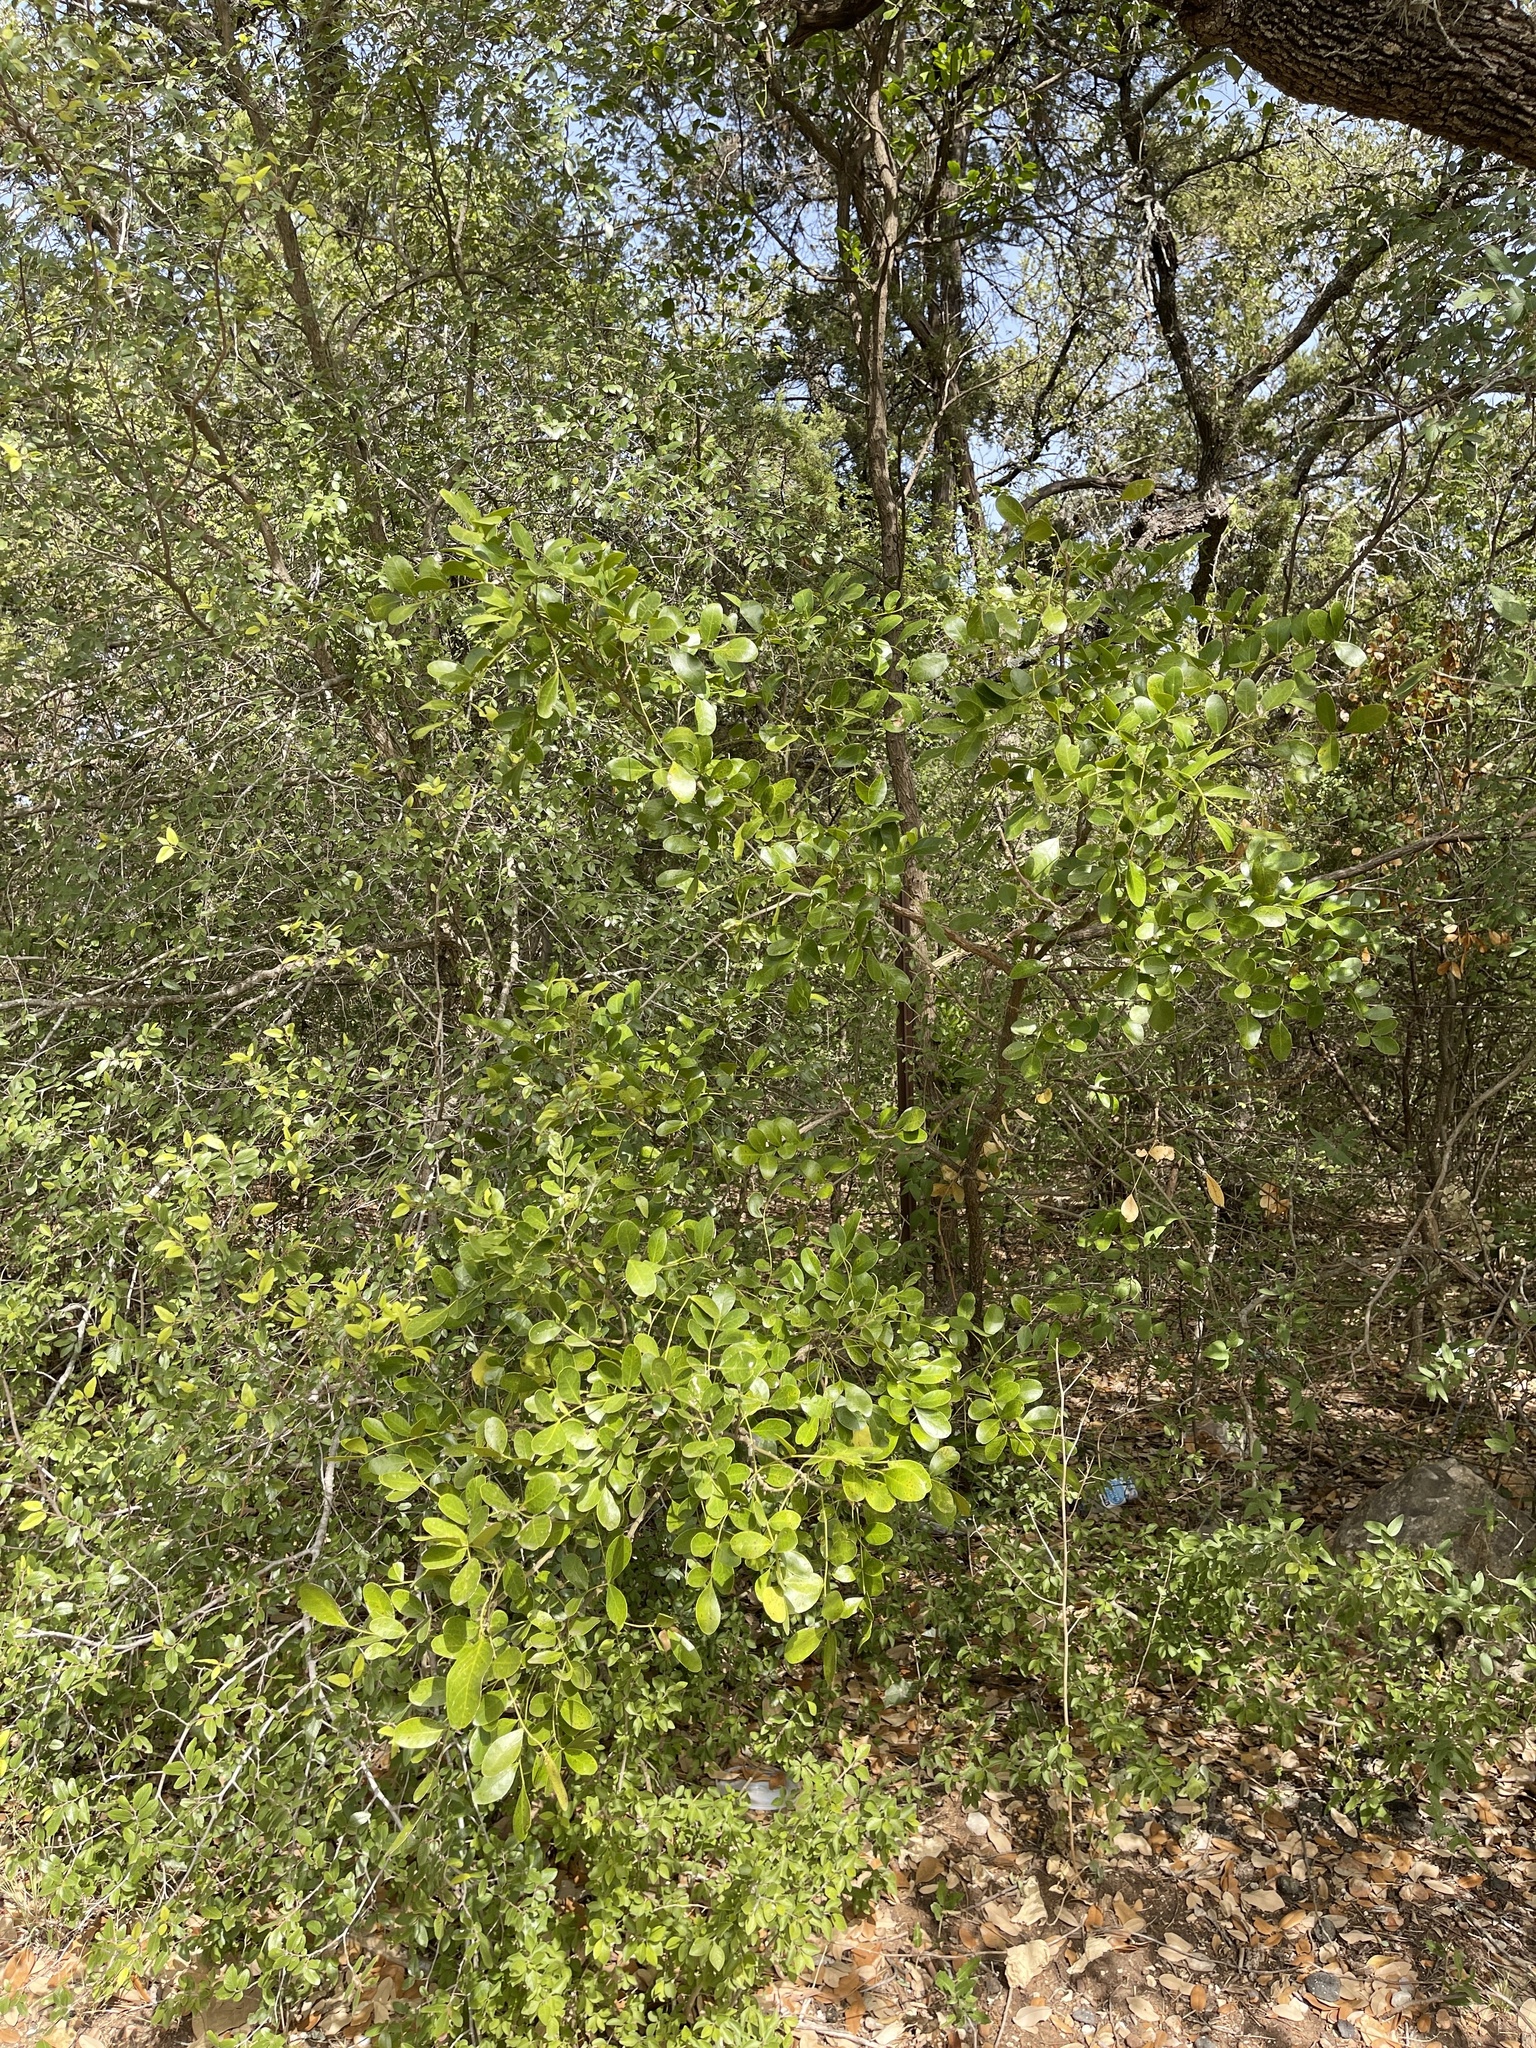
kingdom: Plantae
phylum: Tracheophyta
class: Magnoliopsida
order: Fabales
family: Fabaceae
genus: Dermatophyllum
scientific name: Dermatophyllum secundiflorum
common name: Texas-mountain-laurel
